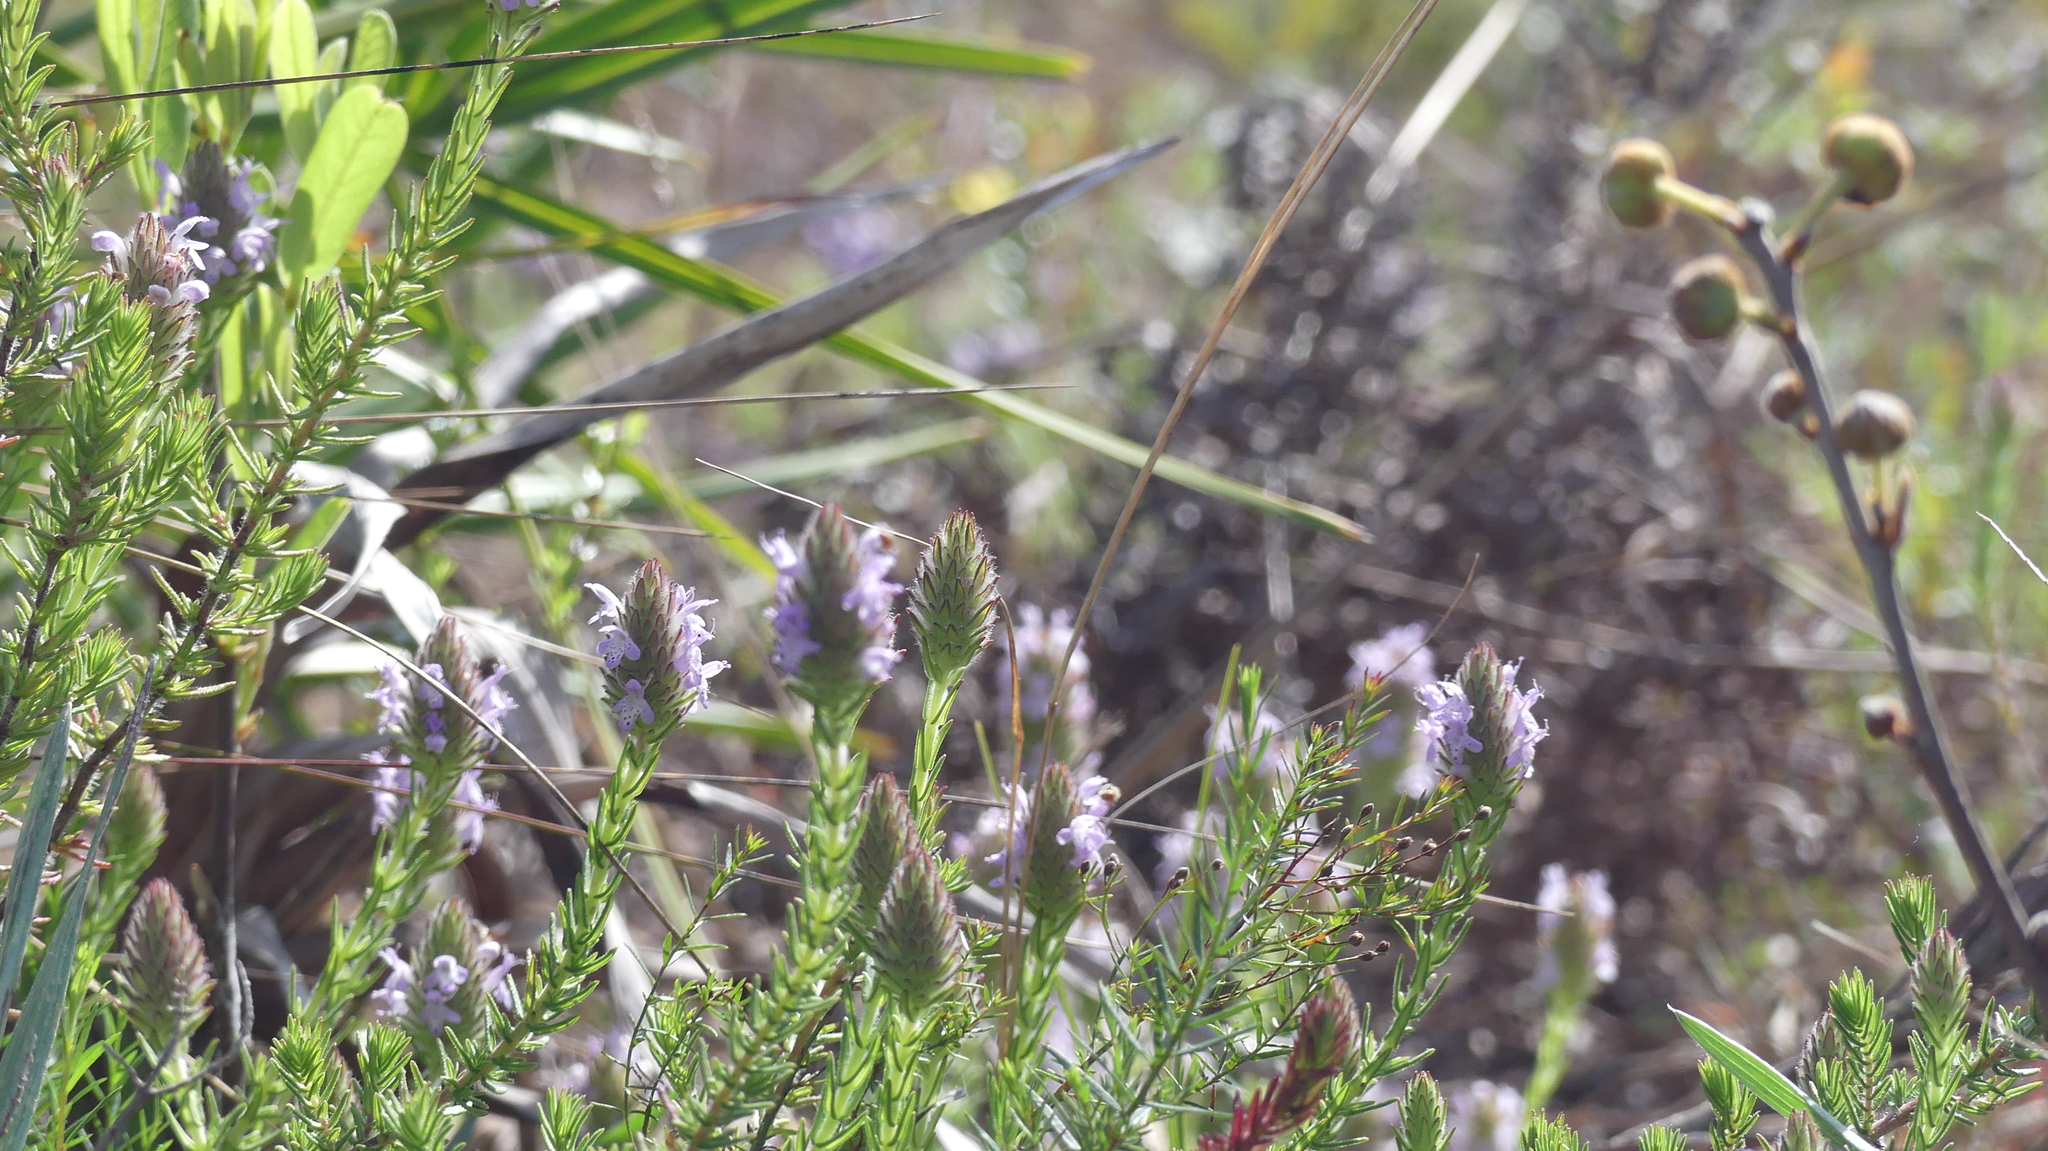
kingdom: Plantae
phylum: Tracheophyta
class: Magnoliopsida
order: Lamiales
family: Lamiaceae
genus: Piloblephis
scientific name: Piloblephis rigida
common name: Wild pennyroyal
